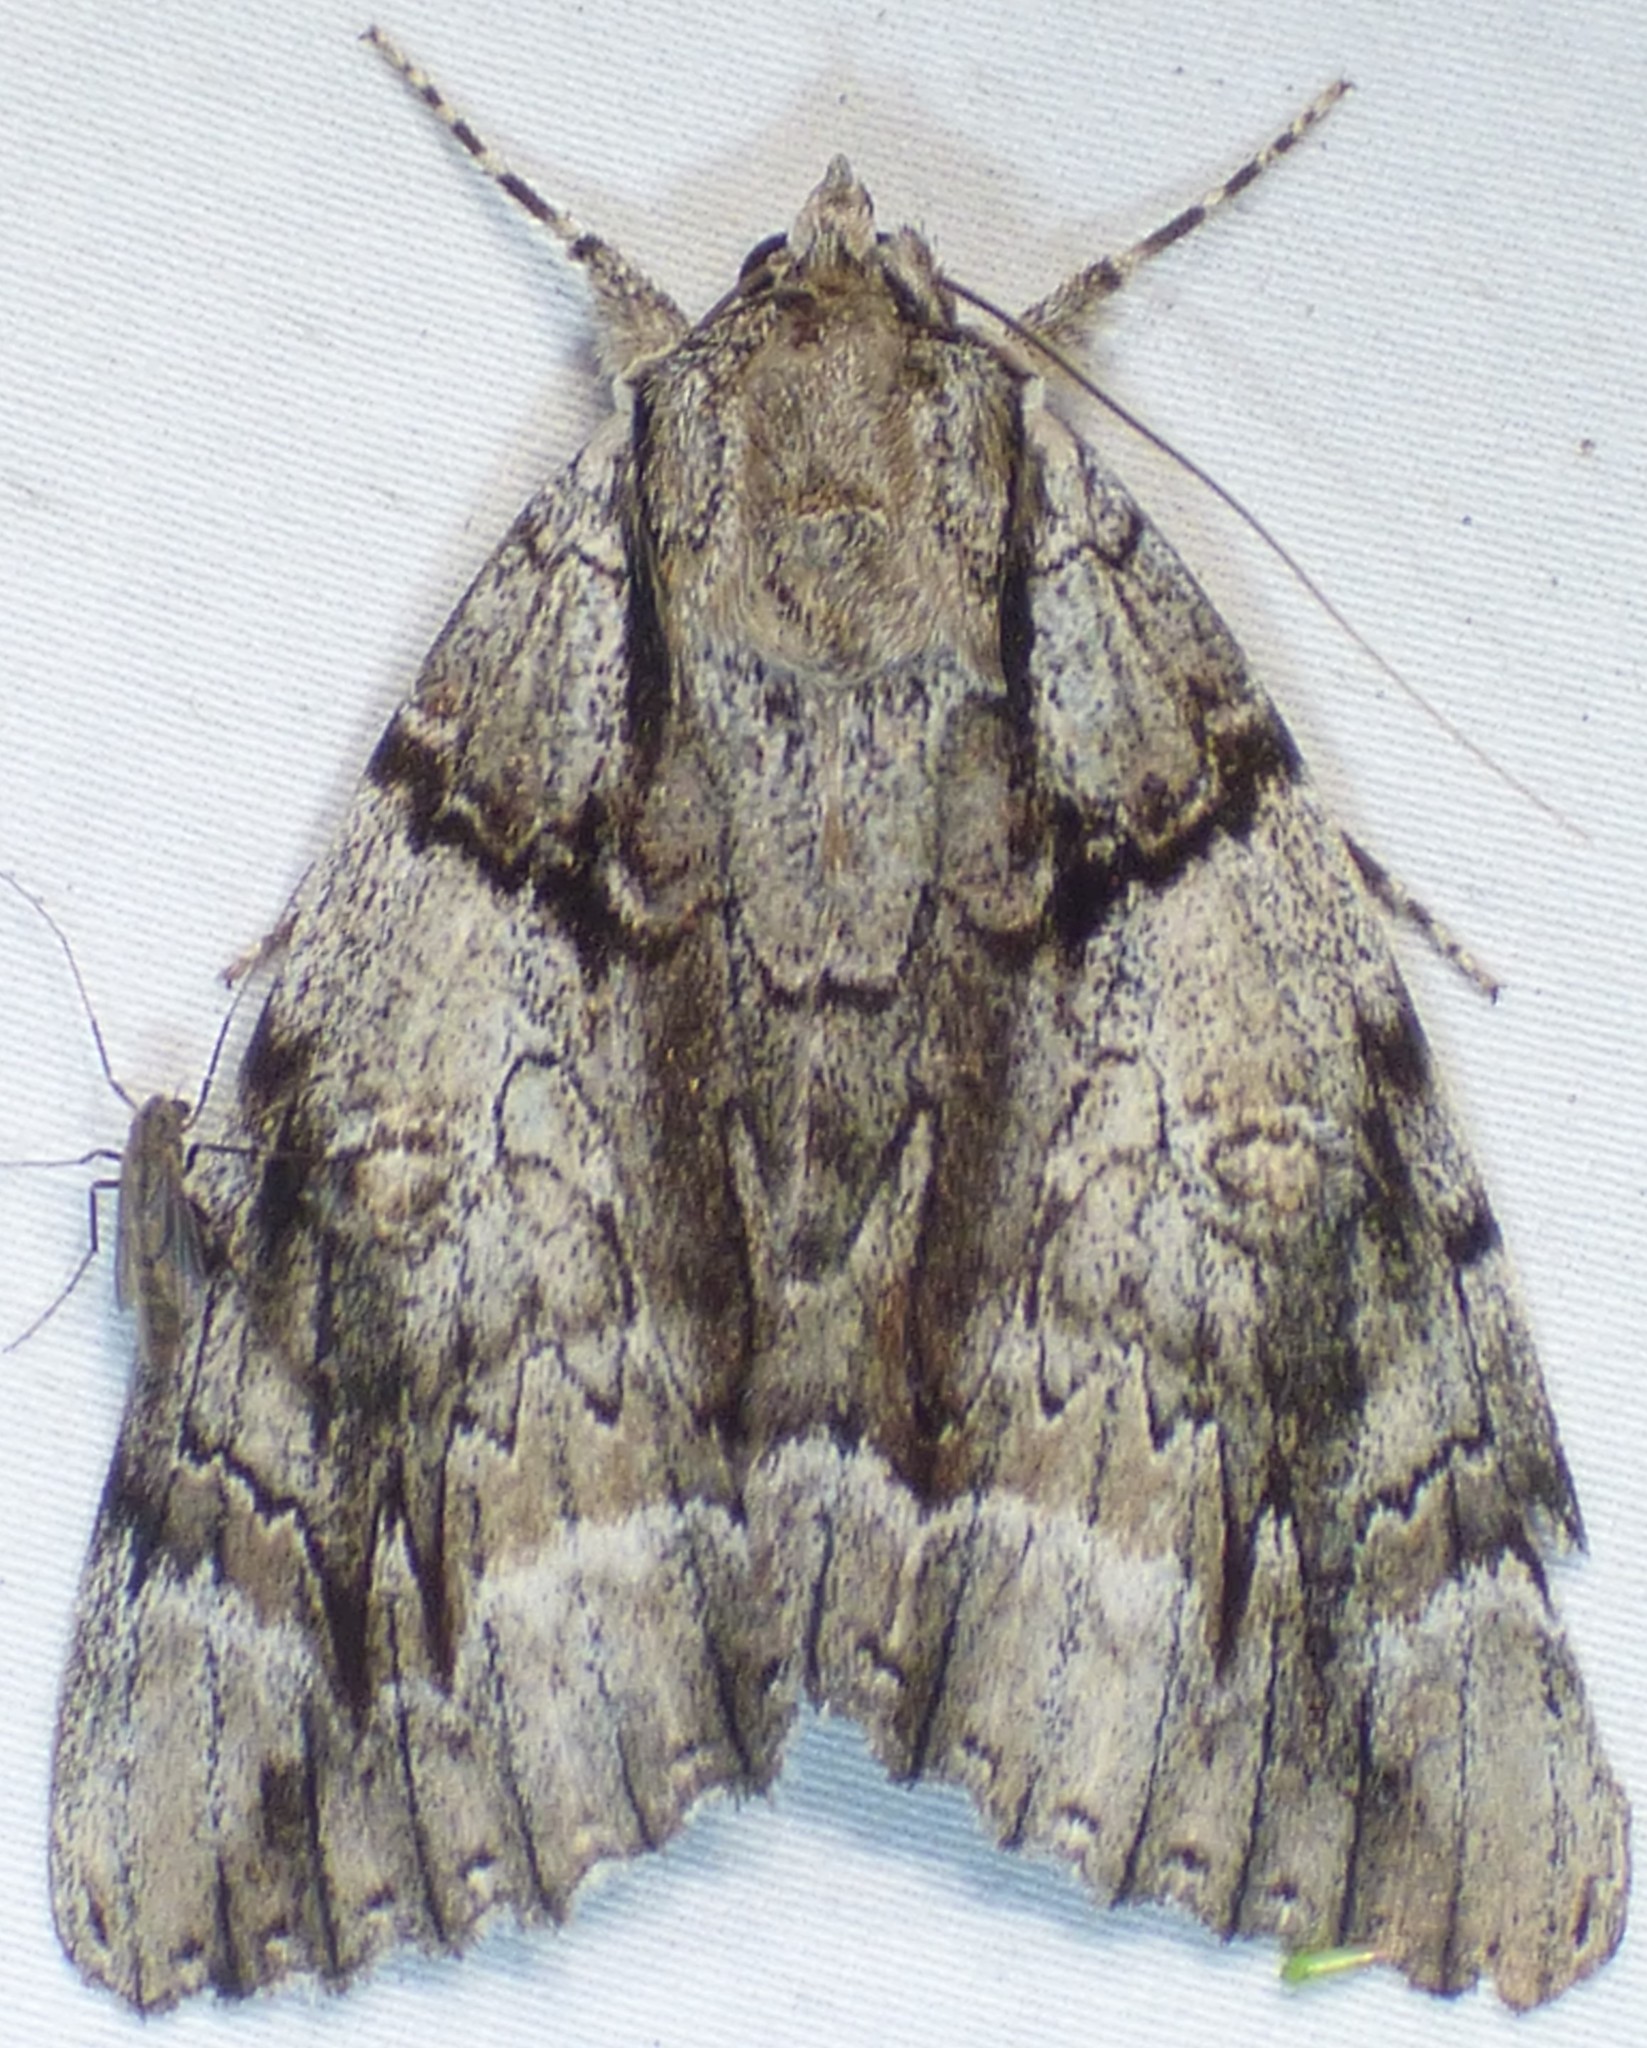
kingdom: Animalia
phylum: Arthropoda
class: Insecta
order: Lepidoptera
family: Erebidae
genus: Catocala
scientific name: Catocala vidua
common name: The widow
